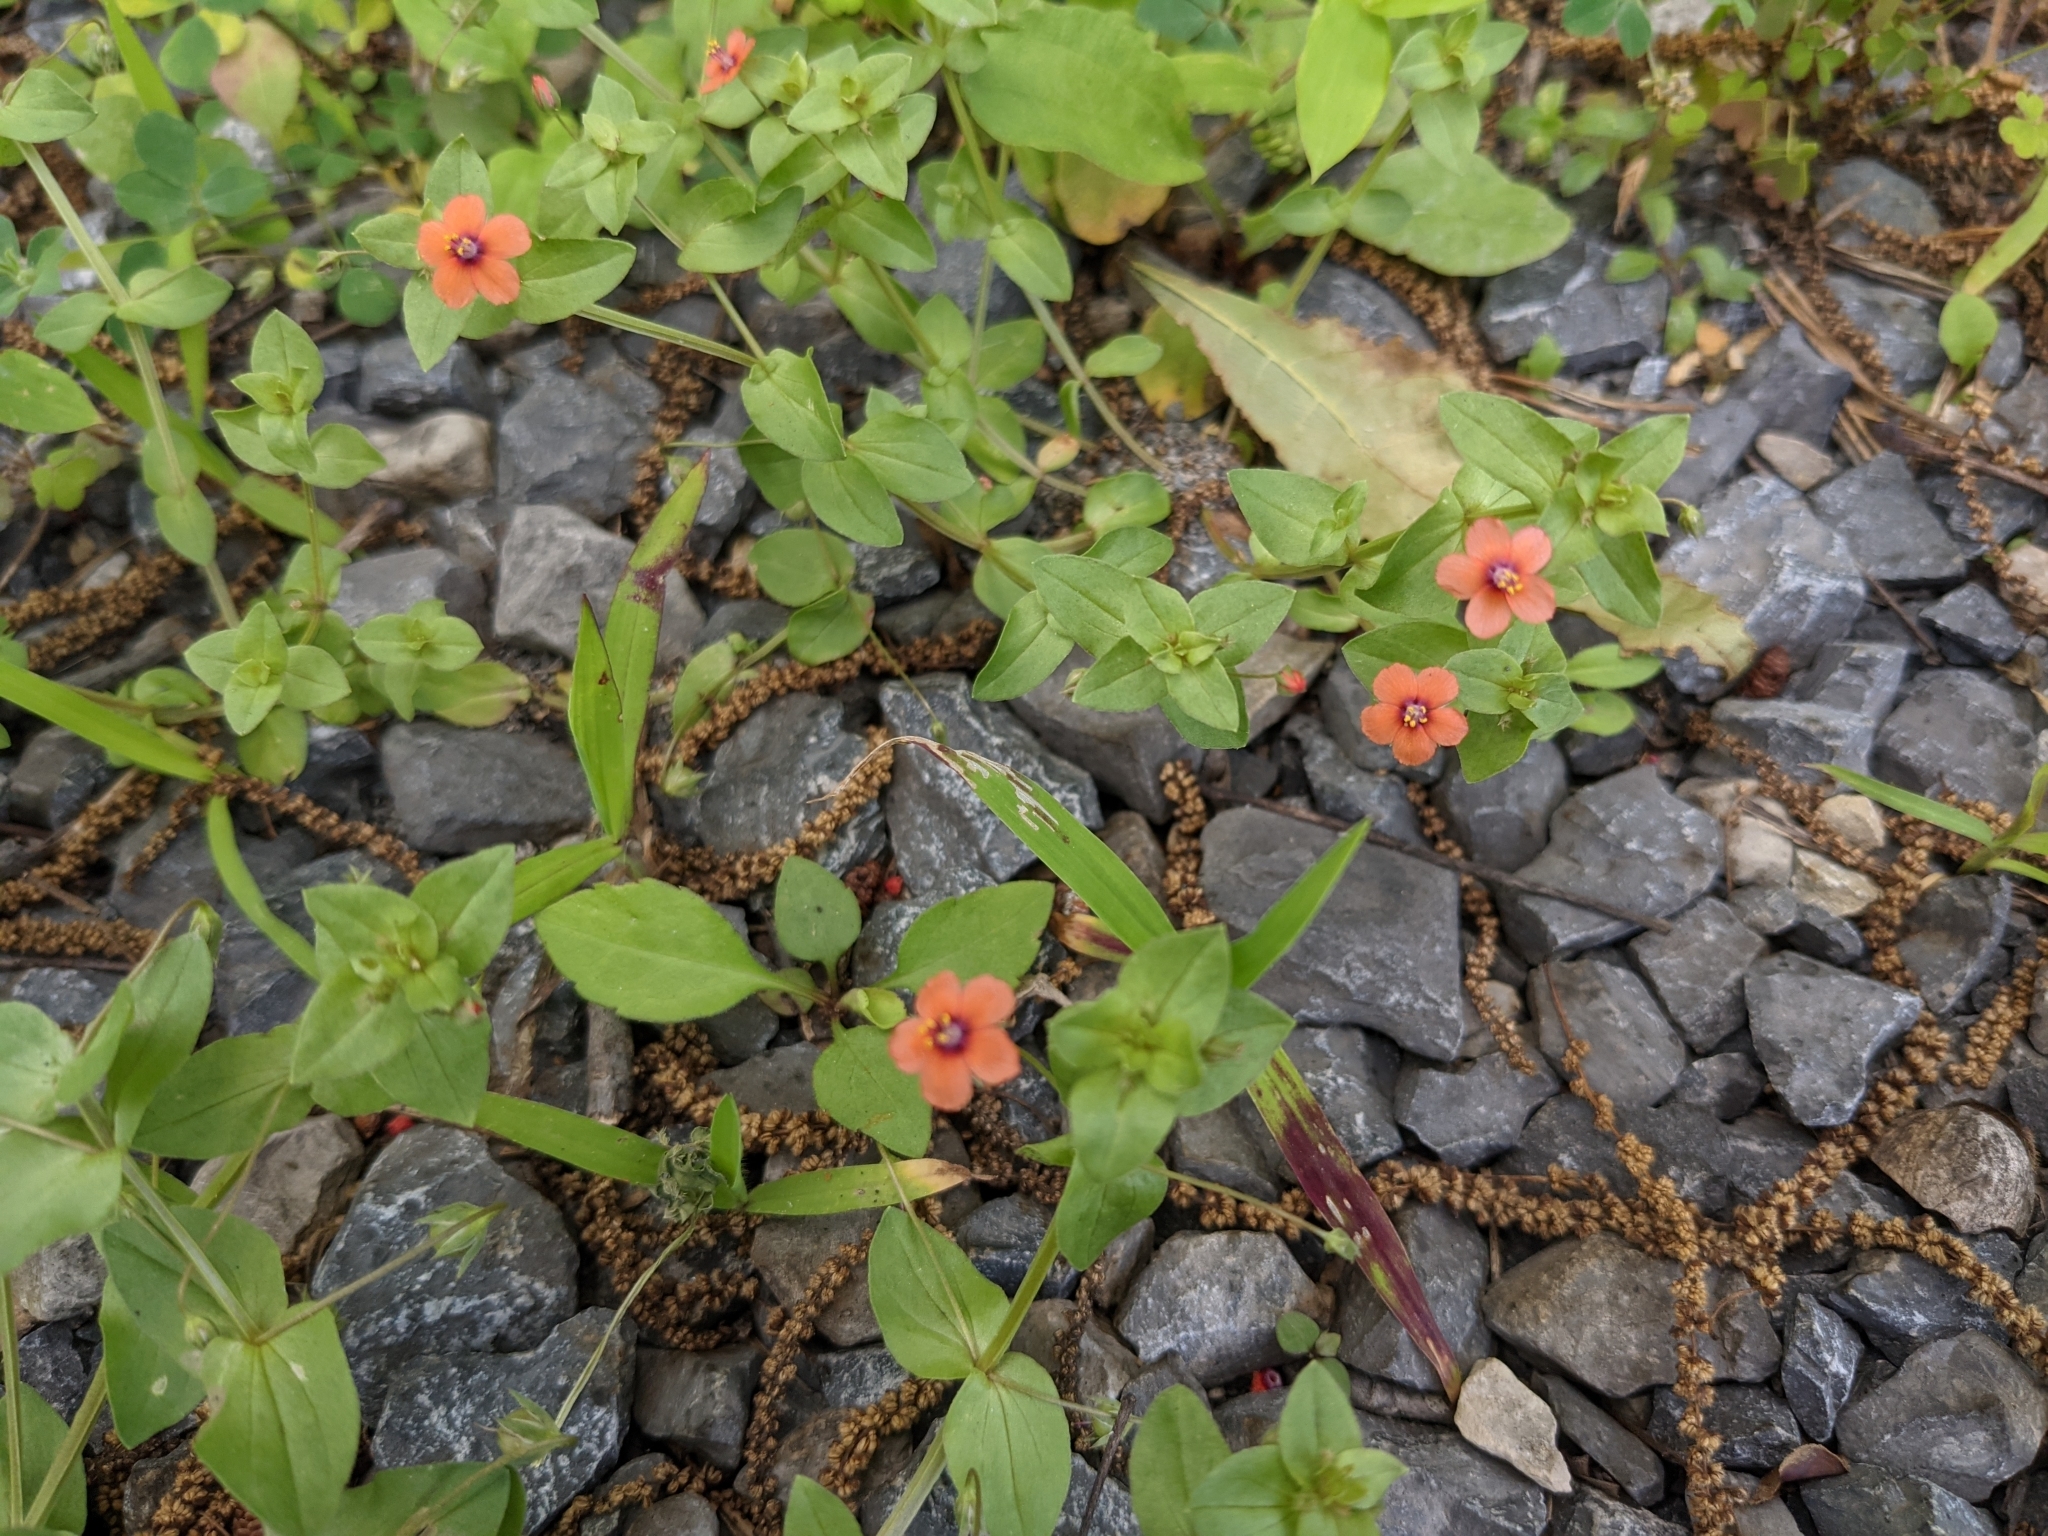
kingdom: Plantae
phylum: Tracheophyta
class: Magnoliopsida
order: Ericales
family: Primulaceae
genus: Lysimachia
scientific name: Lysimachia arvensis
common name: Scarlet pimpernel
